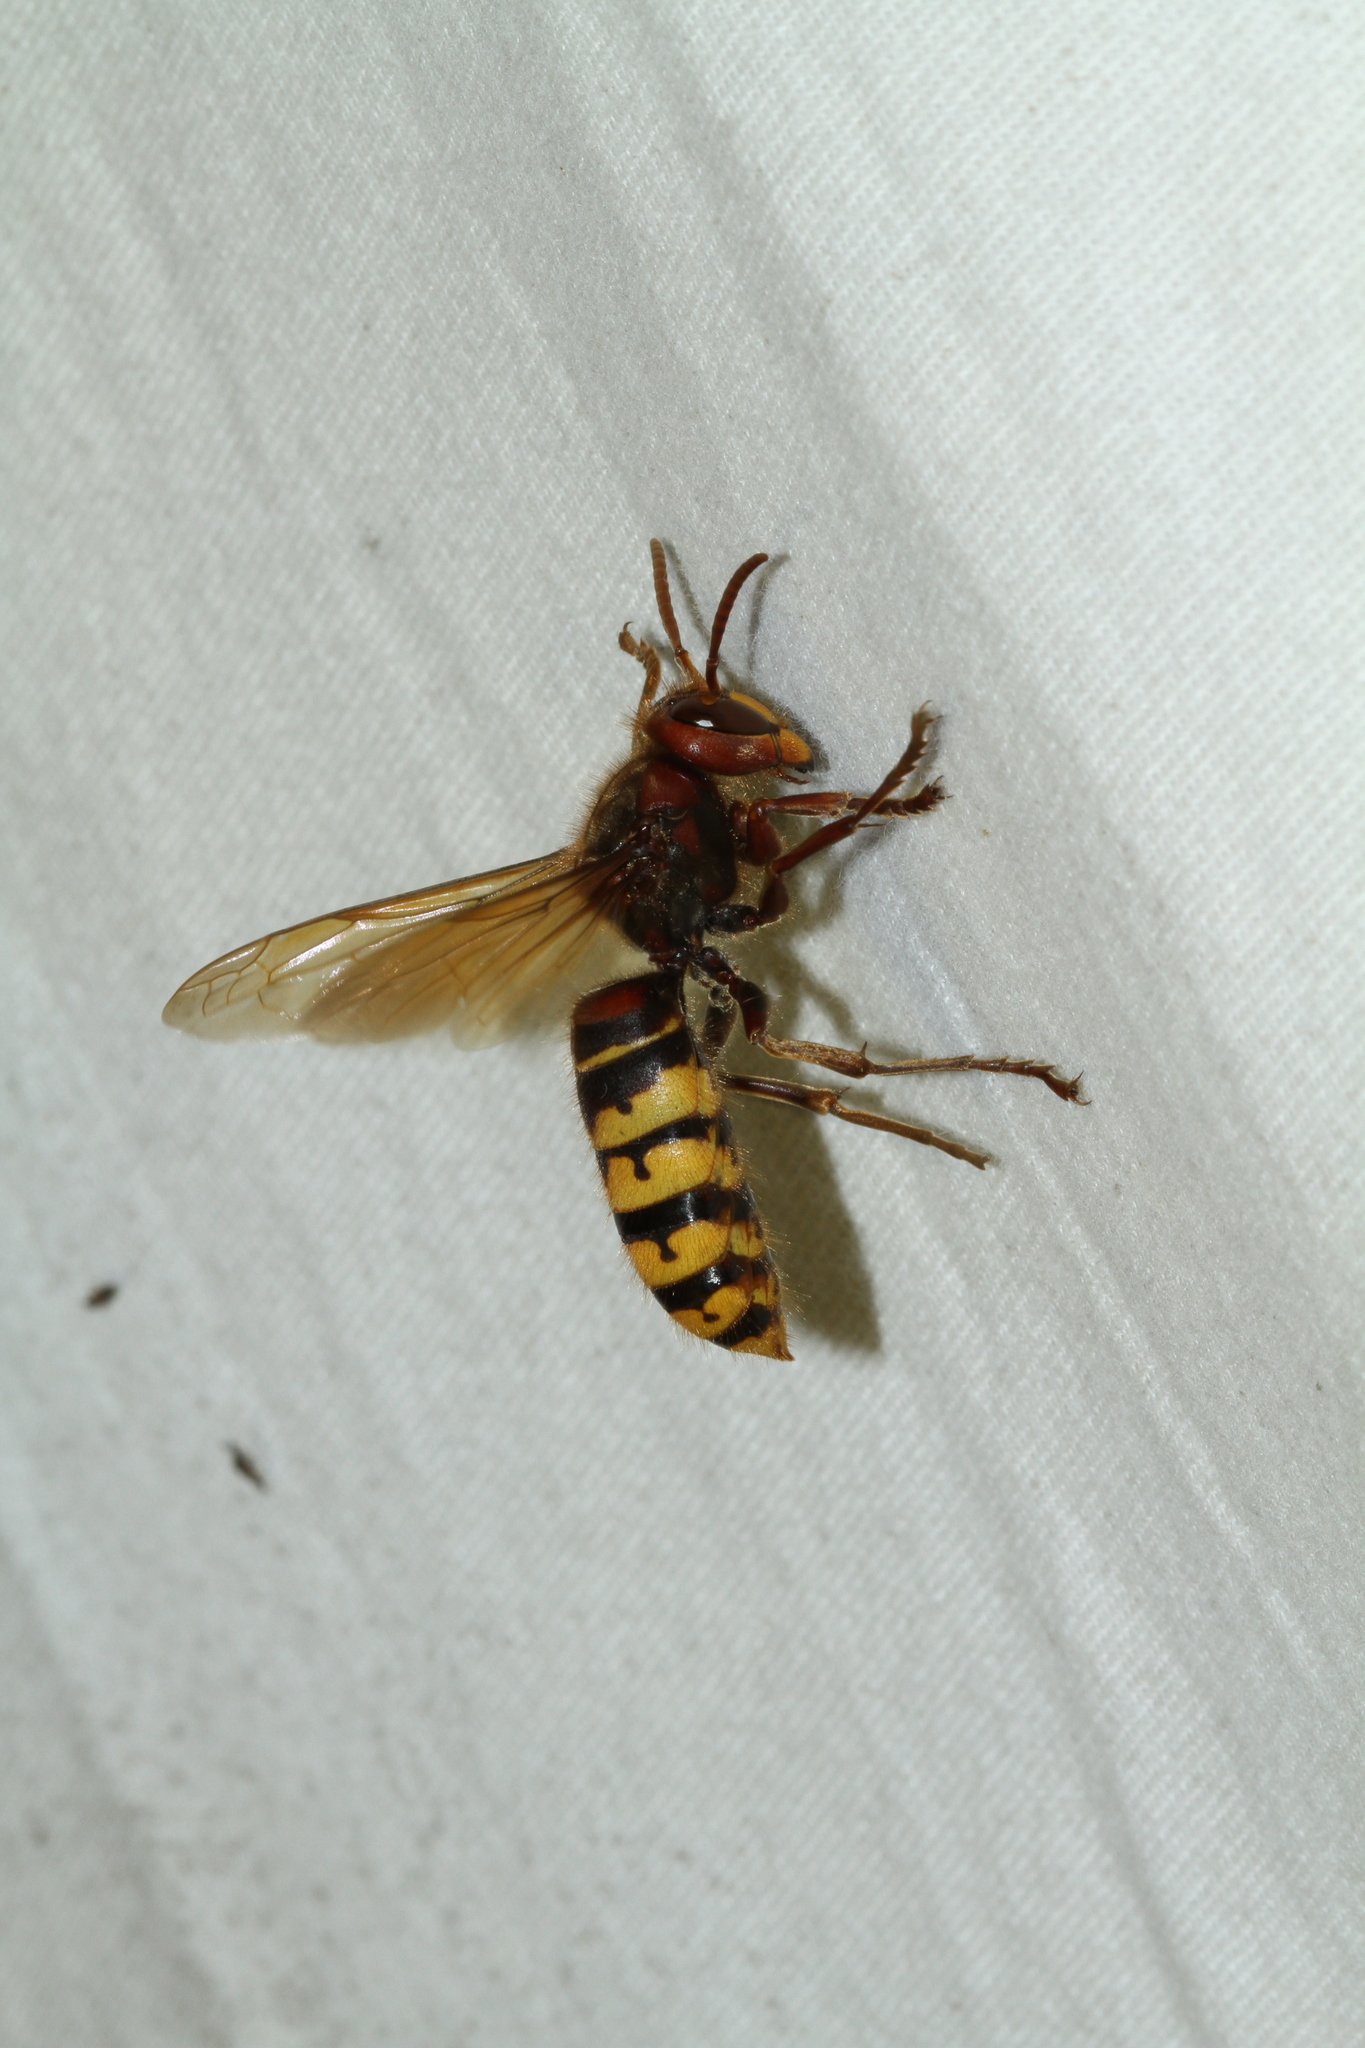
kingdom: Animalia
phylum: Arthropoda
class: Insecta
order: Hymenoptera
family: Vespidae
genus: Vespa
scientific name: Vespa crabro
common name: Hornet
